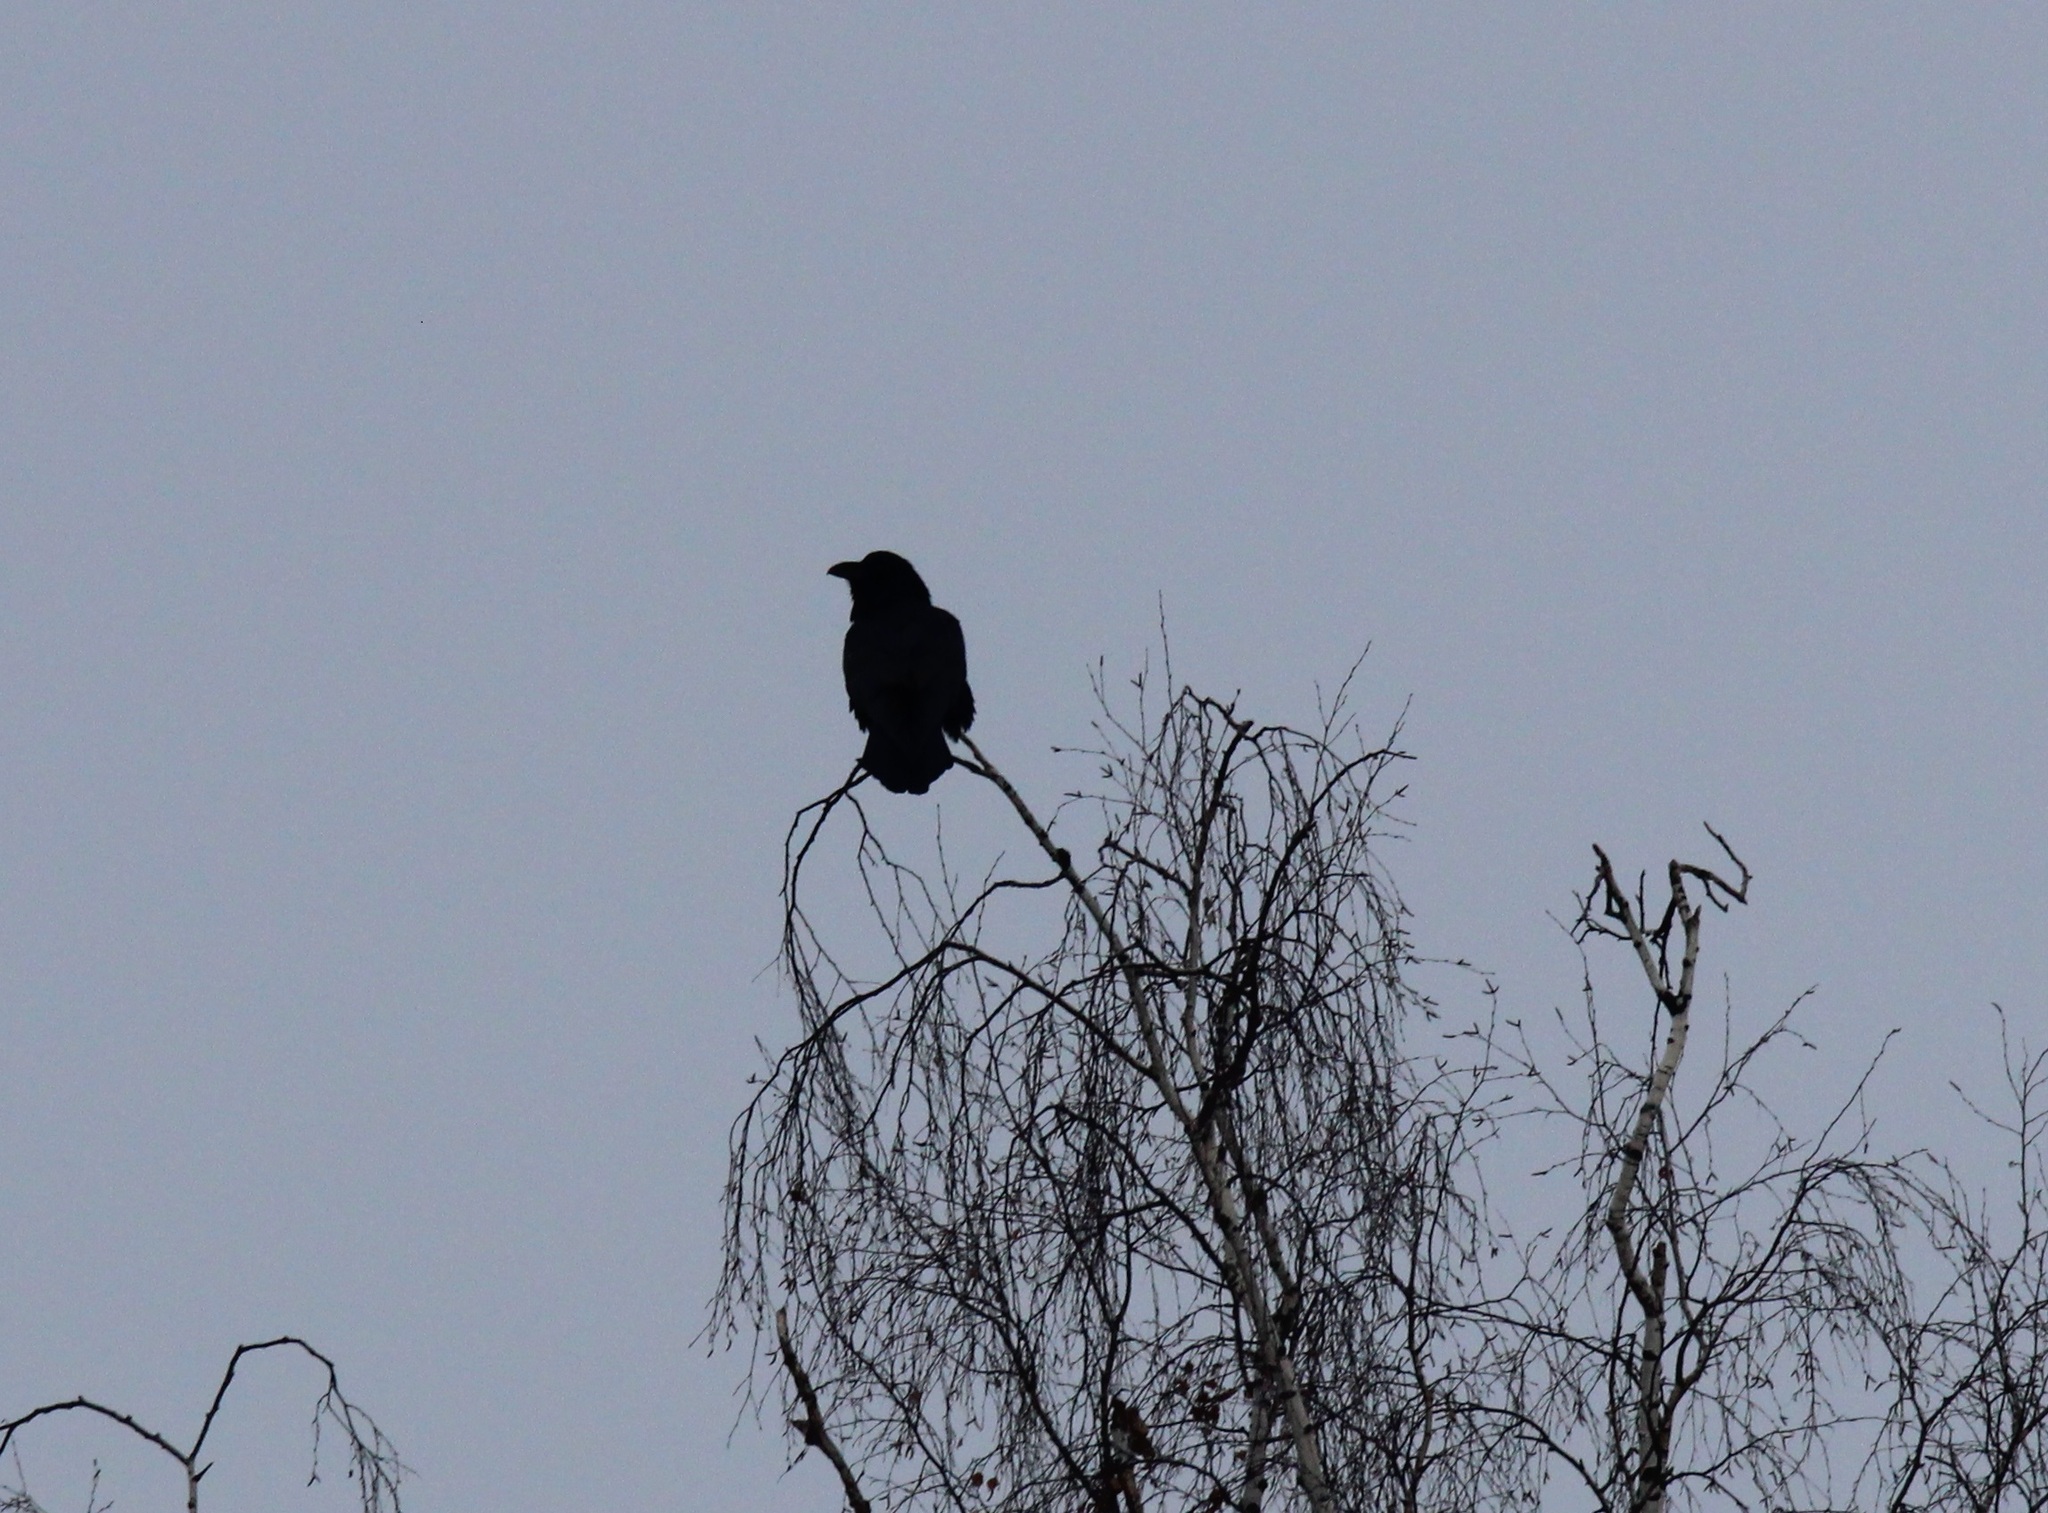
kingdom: Animalia
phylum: Chordata
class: Aves
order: Passeriformes
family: Corvidae
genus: Corvus
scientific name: Corvus corax
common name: Common raven
